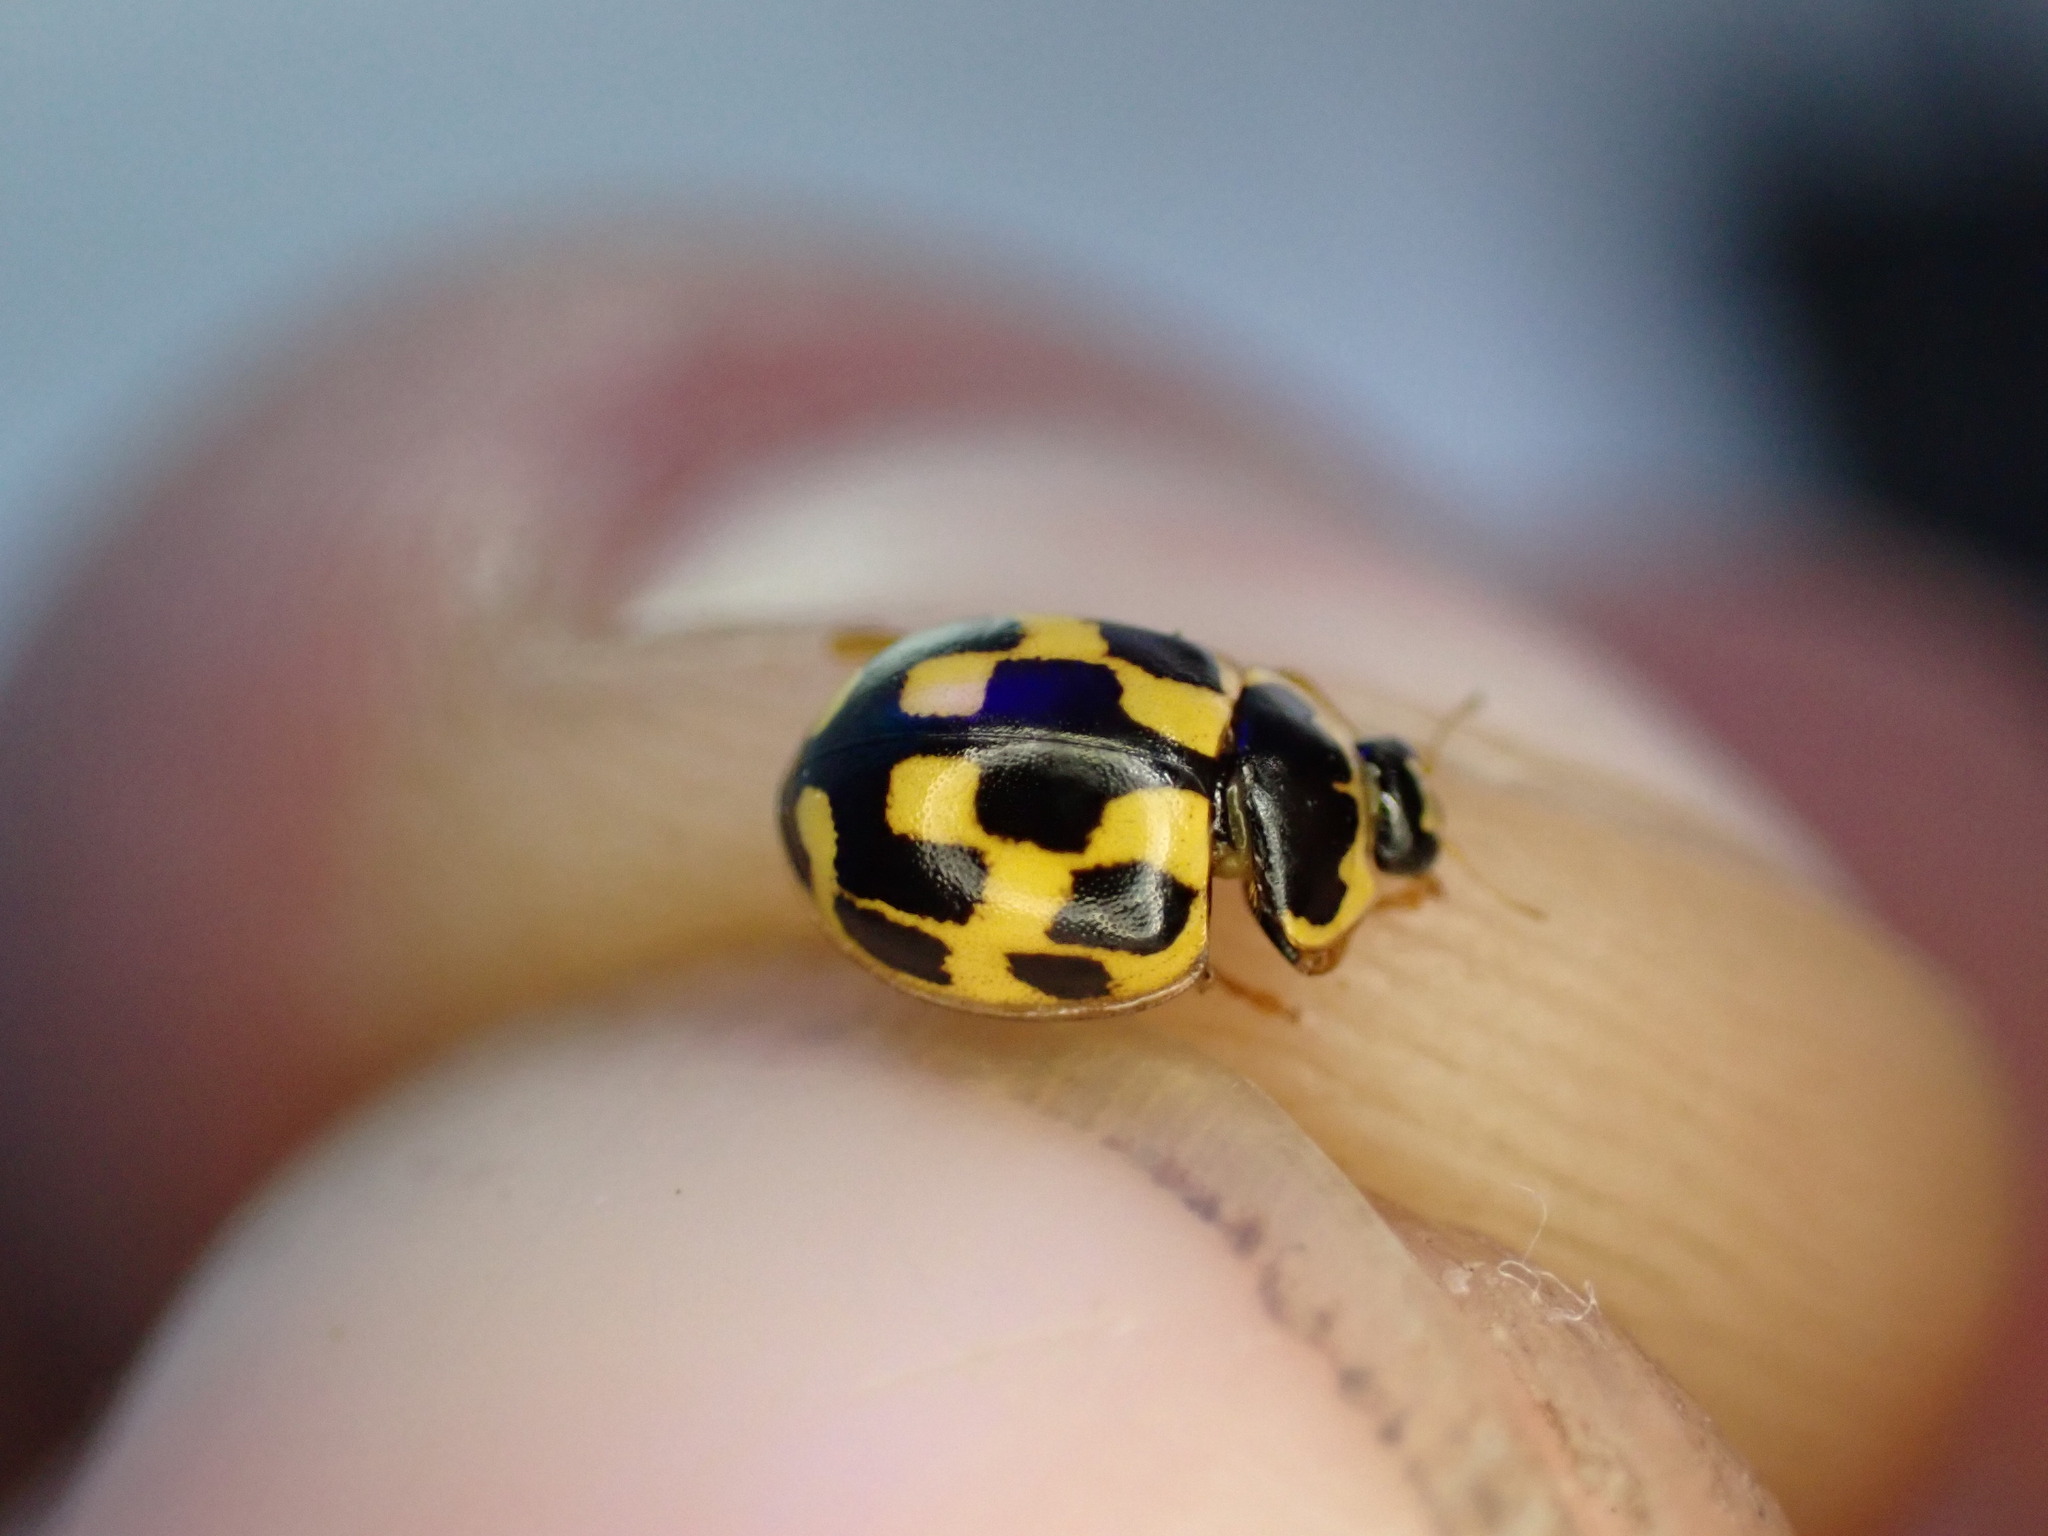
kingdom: Animalia
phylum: Arthropoda
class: Insecta
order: Coleoptera
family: Coccinellidae
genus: Propylaea
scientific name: Propylaea quatuordecimpunctata
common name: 14-spotted ladybird beetle
